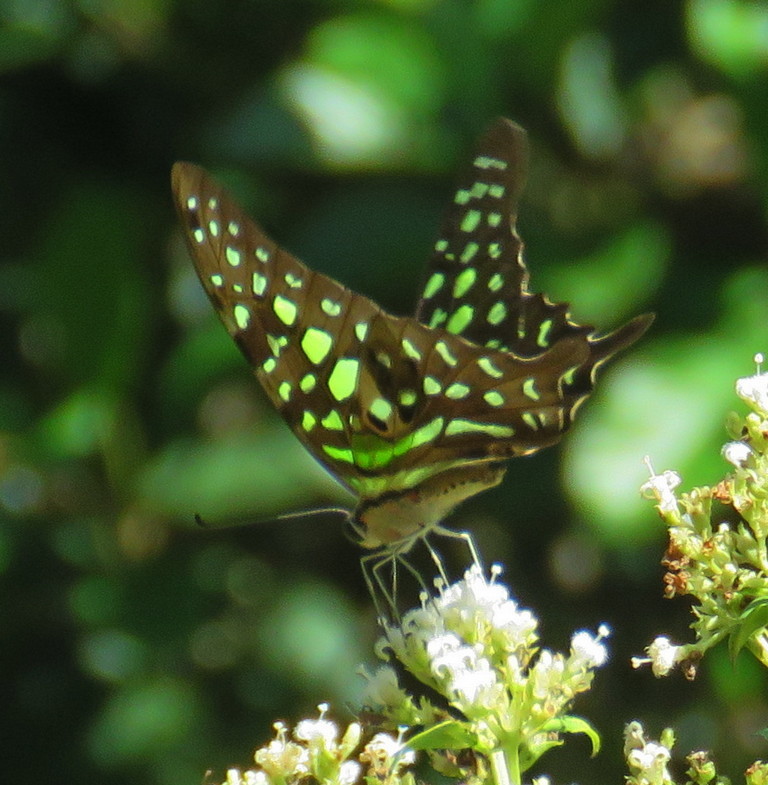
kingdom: Animalia
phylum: Arthropoda
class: Insecta
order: Lepidoptera
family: Papilionidae
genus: Graphium
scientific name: Graphium agamemnon
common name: Tailed jay
